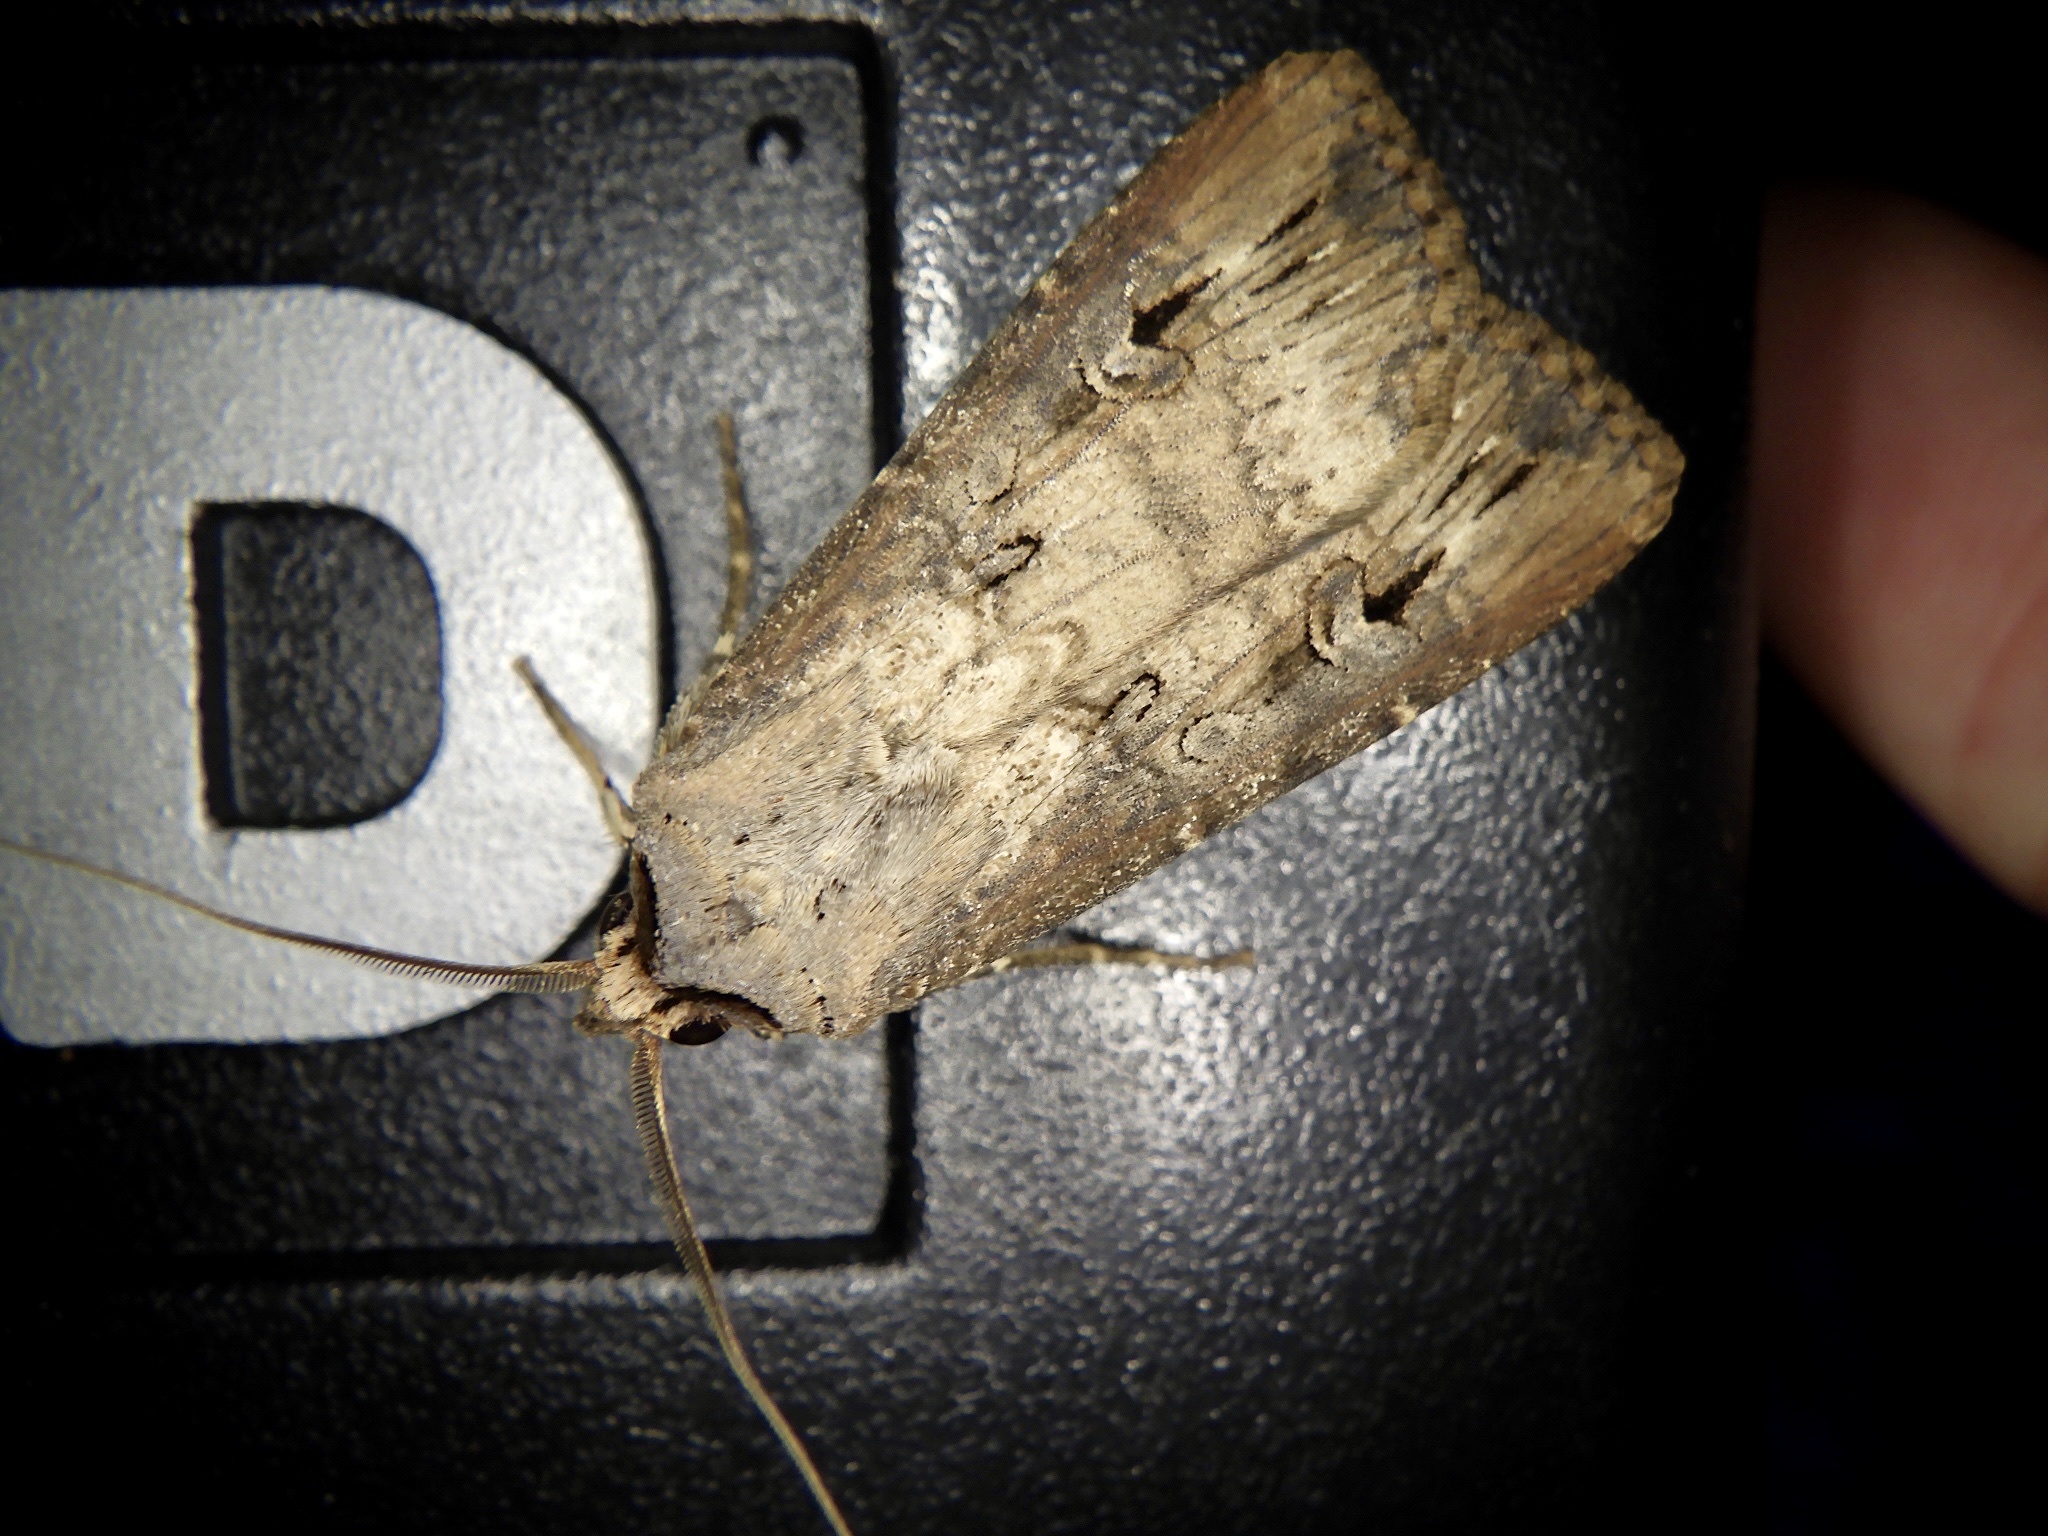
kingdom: Animalia
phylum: Arthropoda
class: Insecta
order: Lepidoptera
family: Noctuidae
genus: Agrotis
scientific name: Agrotis ipsilon
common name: Dark sword-grass
